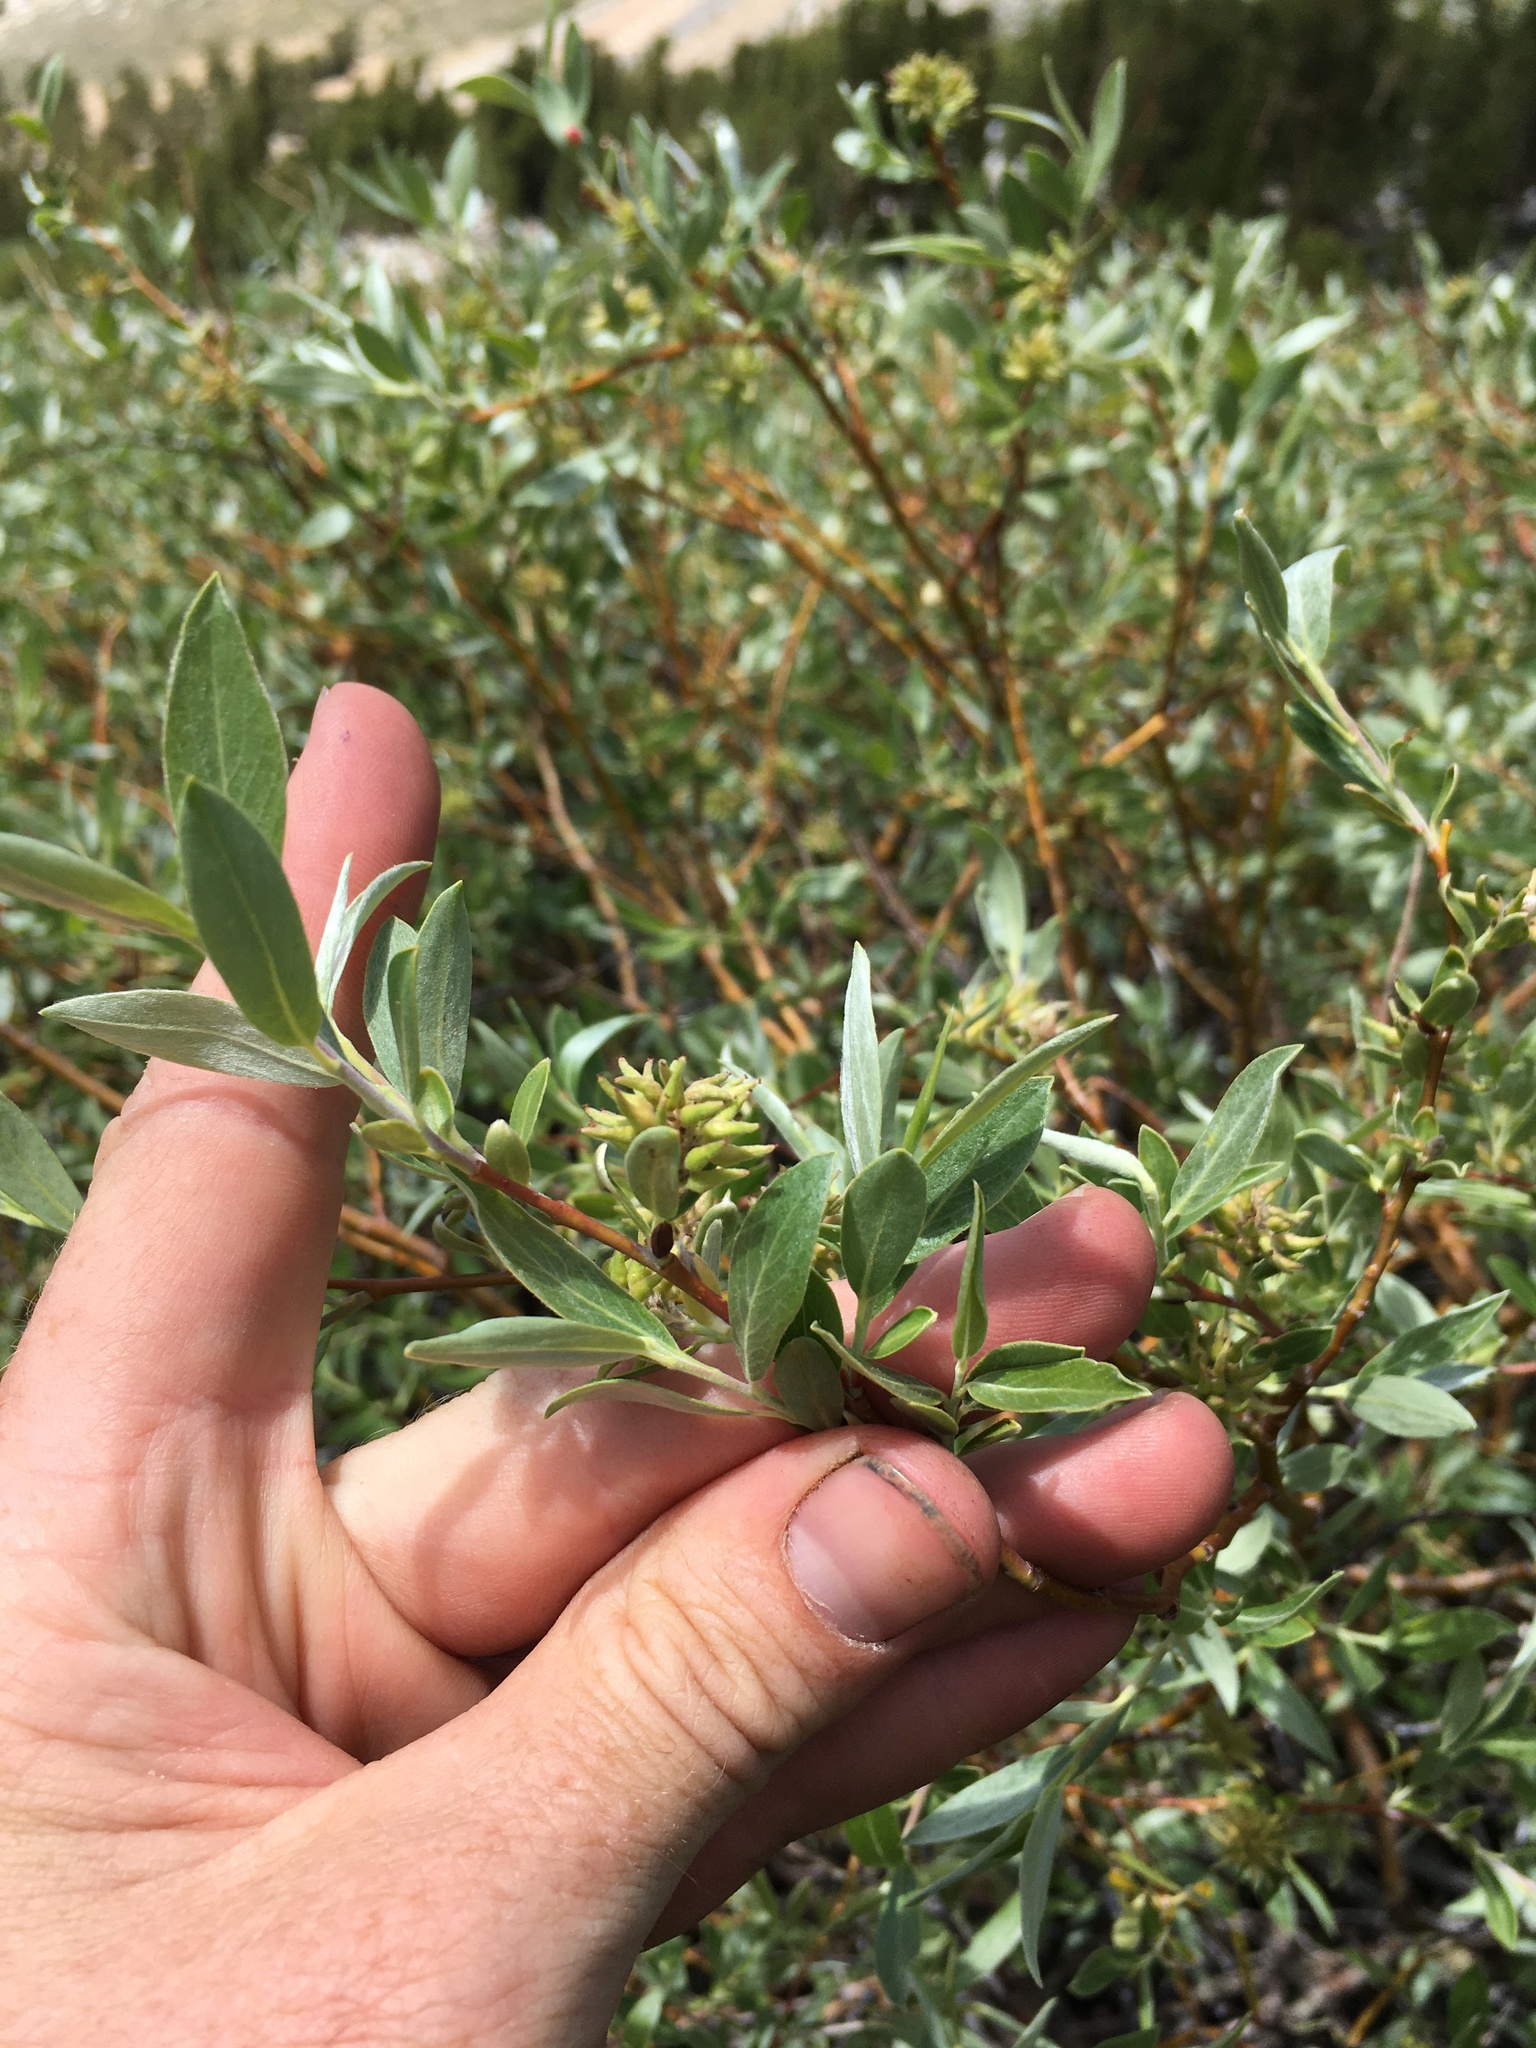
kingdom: Plantae
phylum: Tracheophyta
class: Magnoliopsida
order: Malpighiales
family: Salicaceae
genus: Salix
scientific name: Salix geyeriana
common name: Geyer's willow
